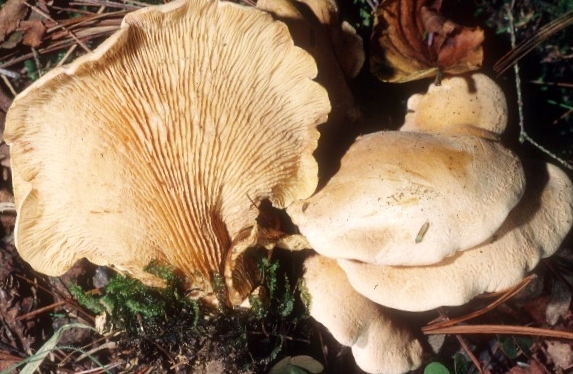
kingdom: Fungi
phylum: Basidiomycota
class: Agaricomycetes
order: Boletales
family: Tapinellaceae
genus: Tapinella
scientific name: Tapinella panuoides
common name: Oyster rollrim
